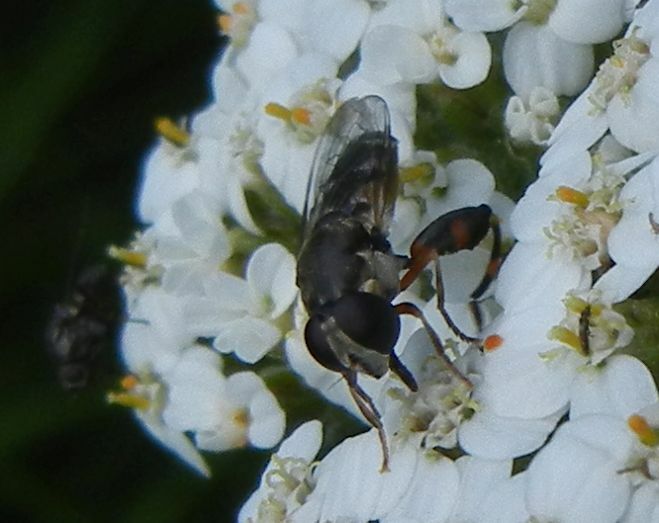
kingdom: Animalia
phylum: Arthropoda
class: Insecta
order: Diptera
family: Syrphidae
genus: Syritta
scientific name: Syritta pipiens
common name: Hover fly
